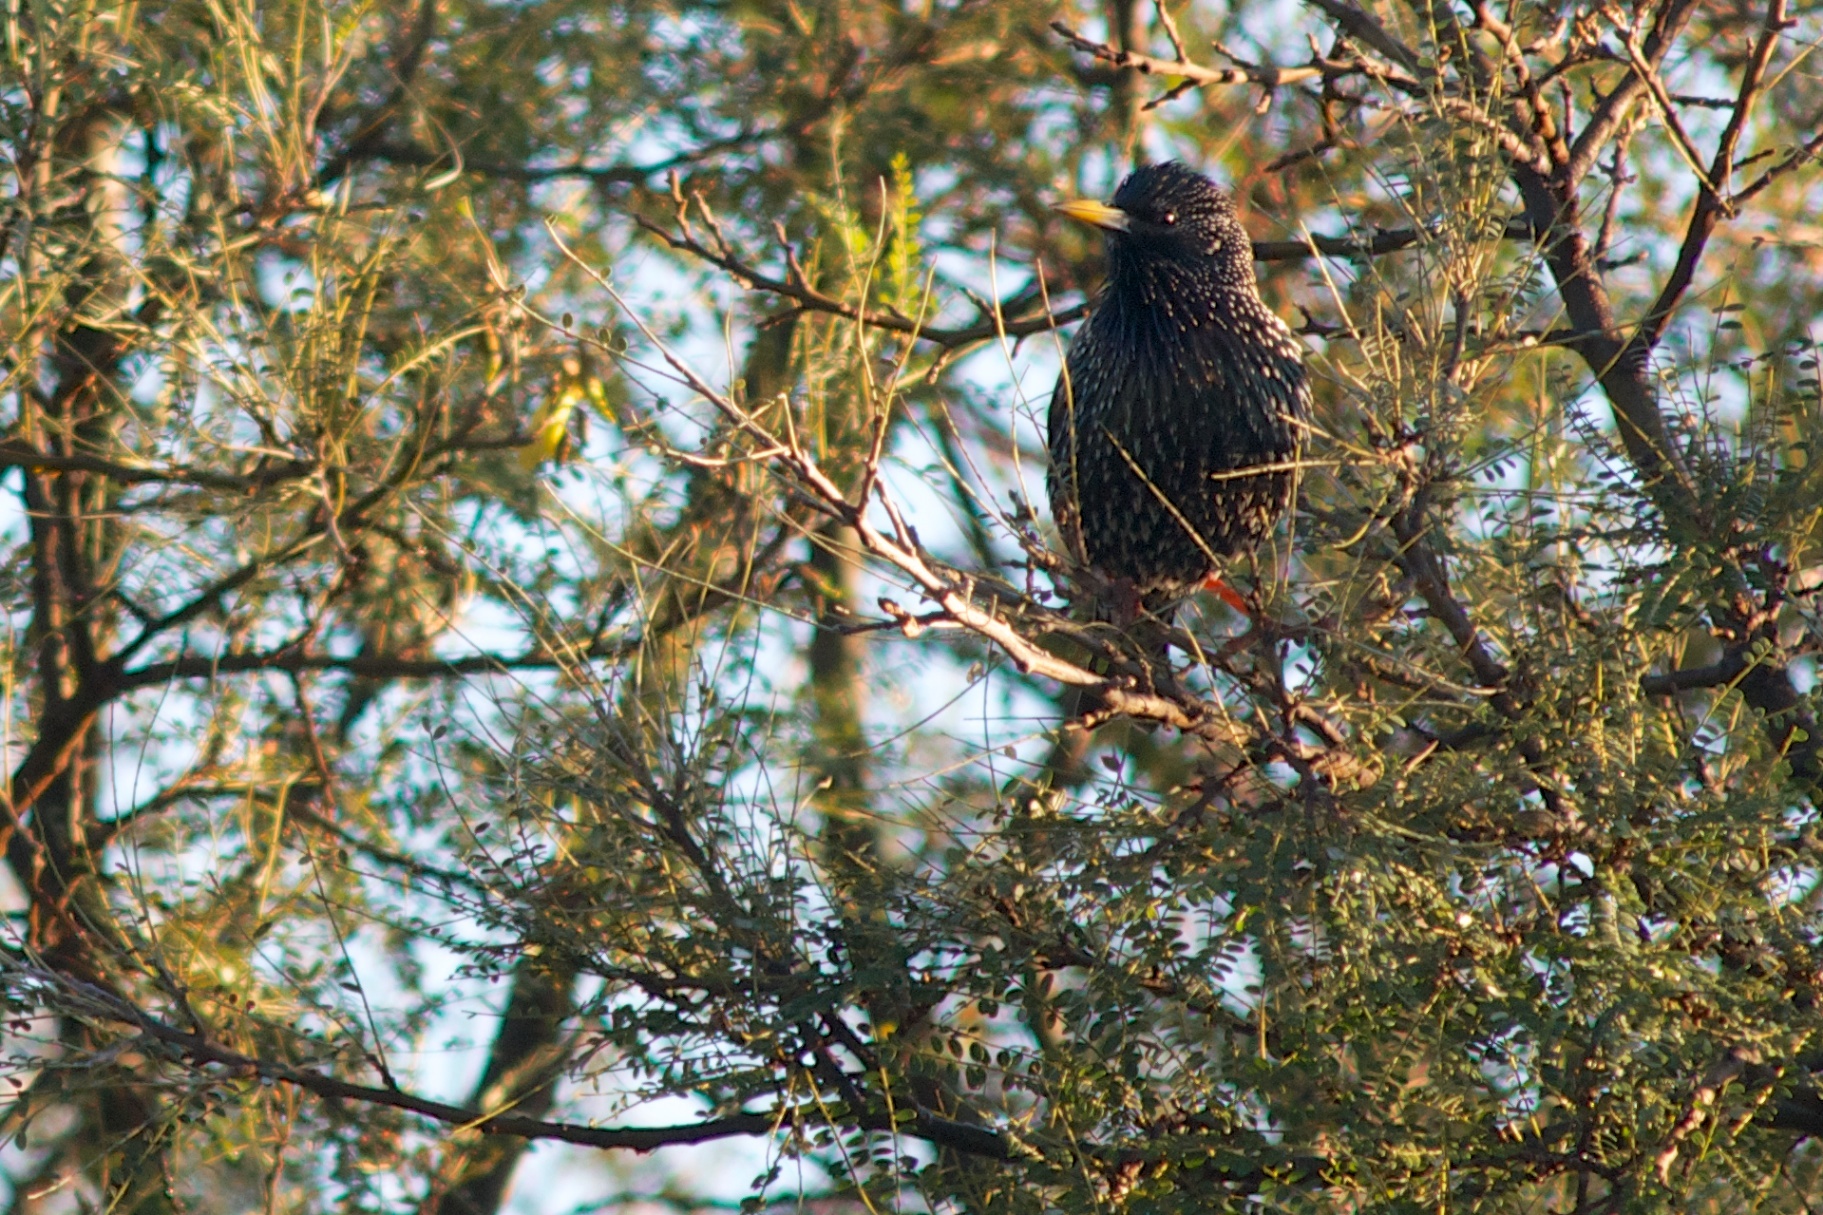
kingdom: Animalia
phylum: Chordata
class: Aves
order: Passeriformes
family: Sturnidae
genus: Sturnus
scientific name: Sturnus vulgaris
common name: Common starling
